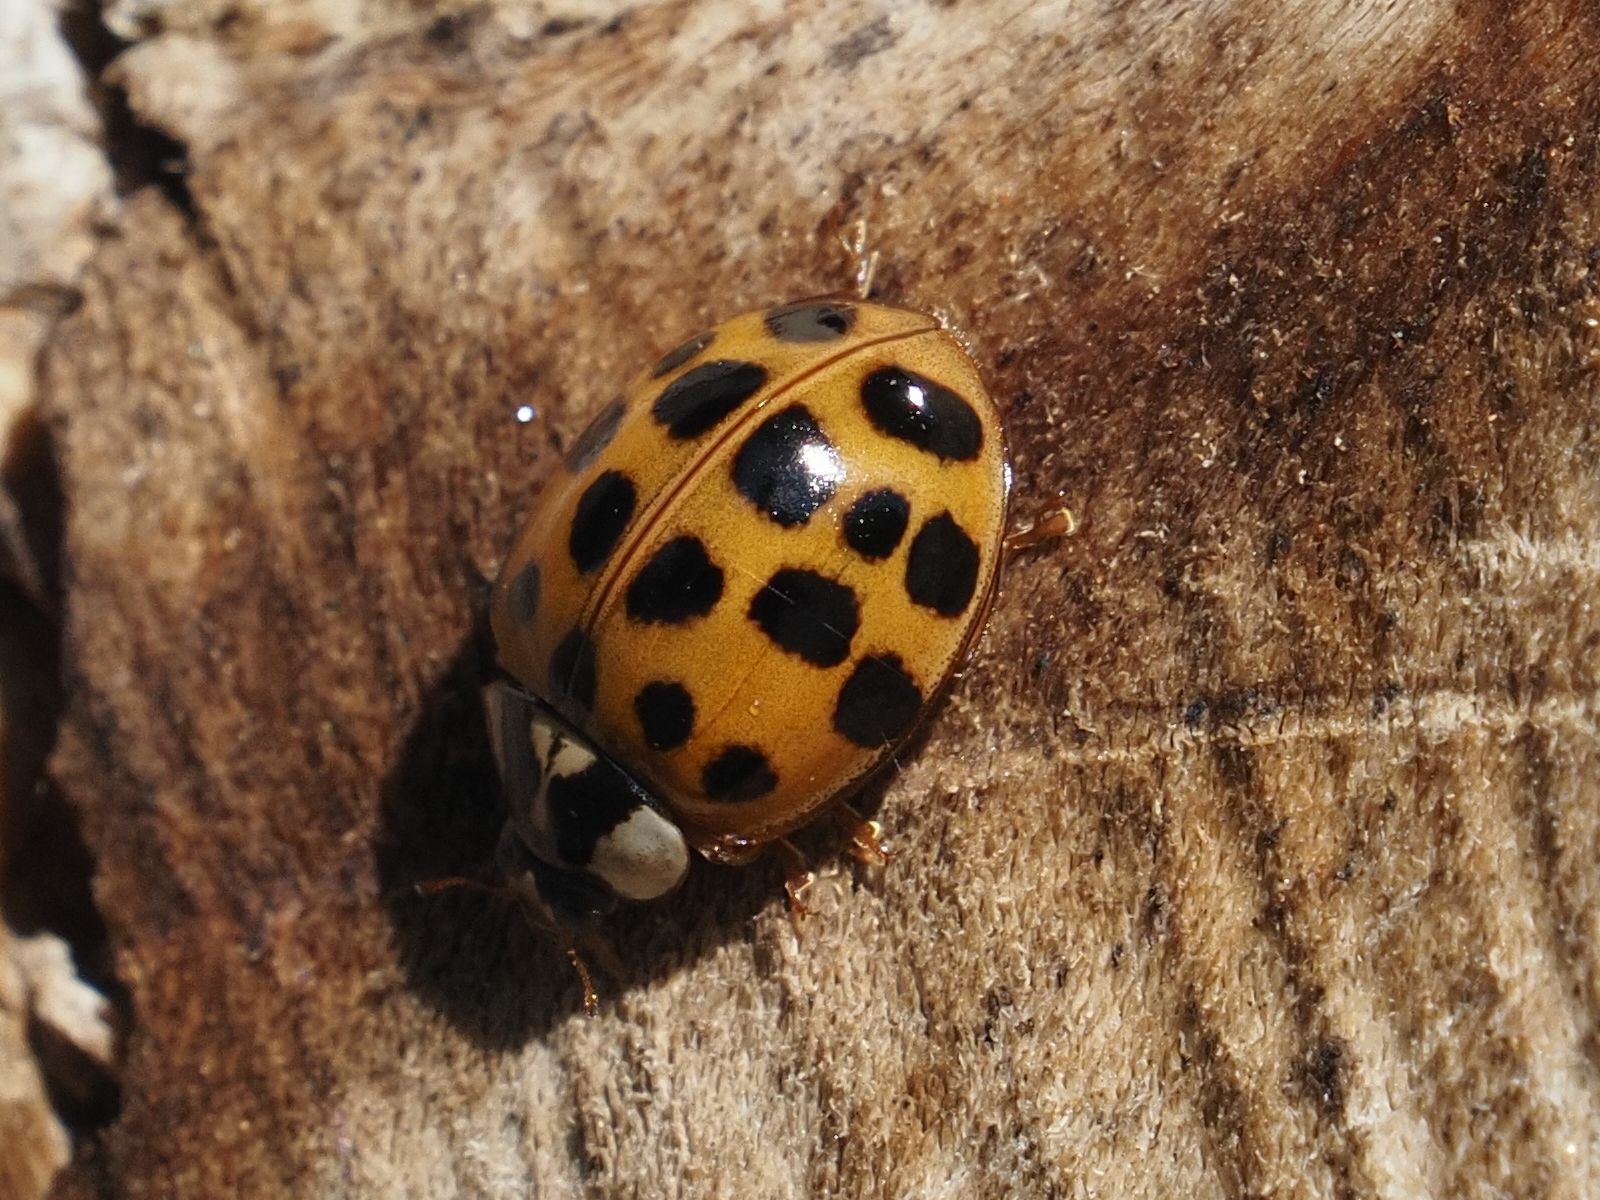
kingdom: Animalia
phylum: Arthropoda
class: Insecta
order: Coleoptera
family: Coccinellidae
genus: Harmonia
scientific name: Harmonia axyridis
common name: Harlequin ladybird
